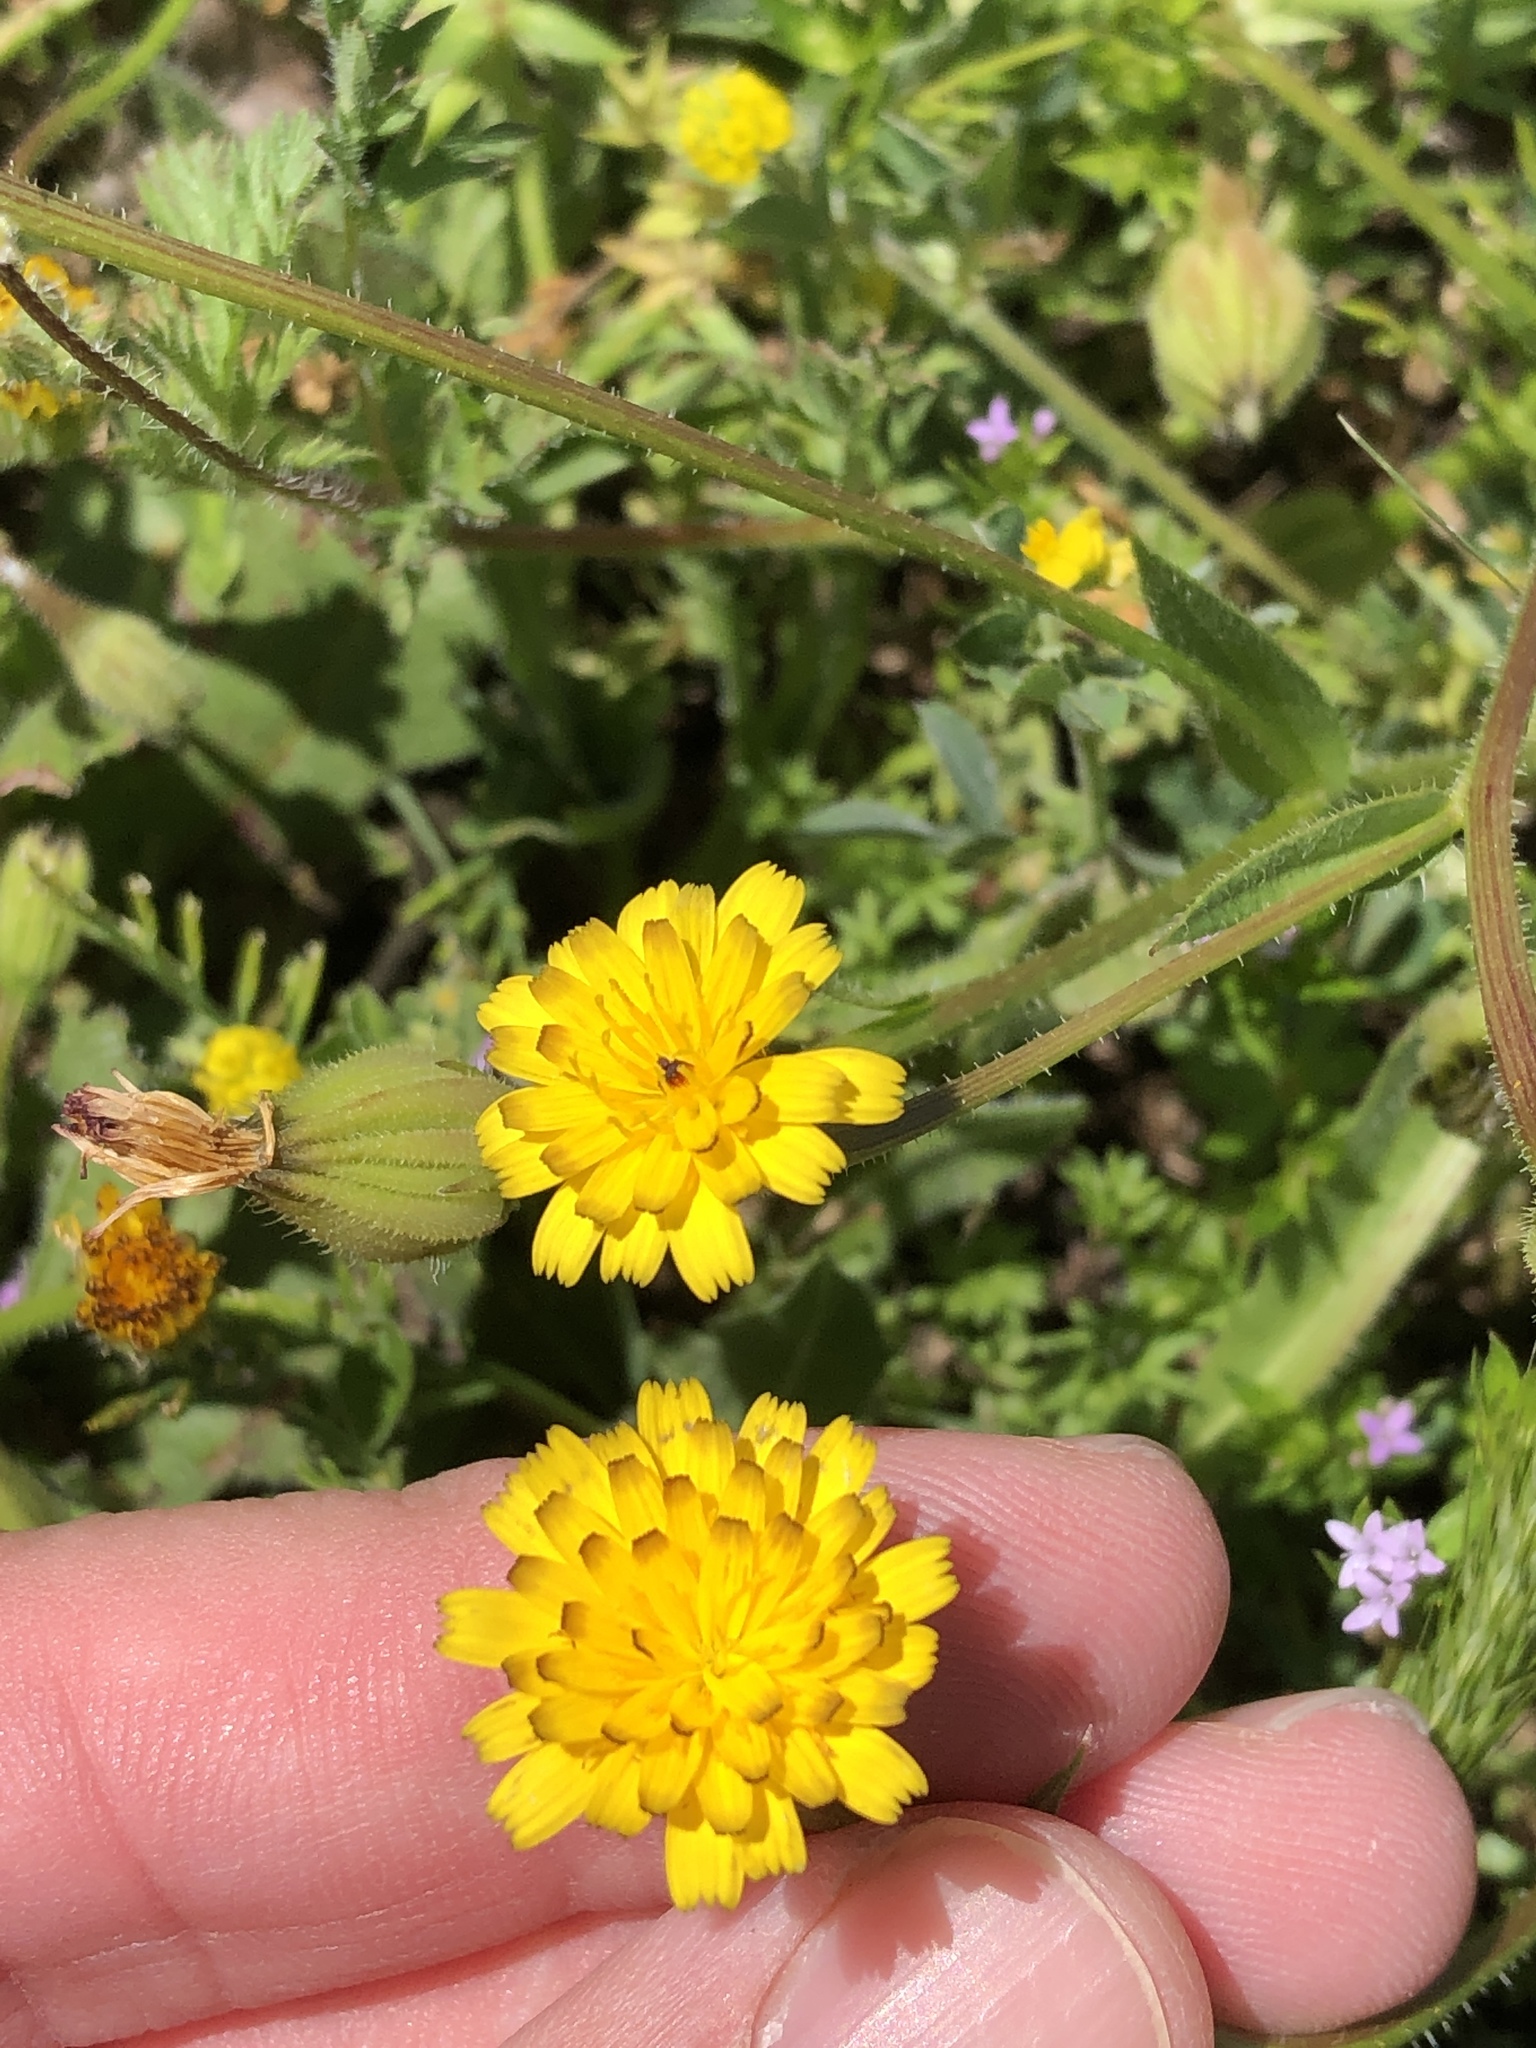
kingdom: Plantae
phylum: Tracheophyta
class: Magnoliopsida
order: Asterales
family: Asteraceae
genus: Hedypnois
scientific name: Hedypnois rhagadioloides
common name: Cretan weed
